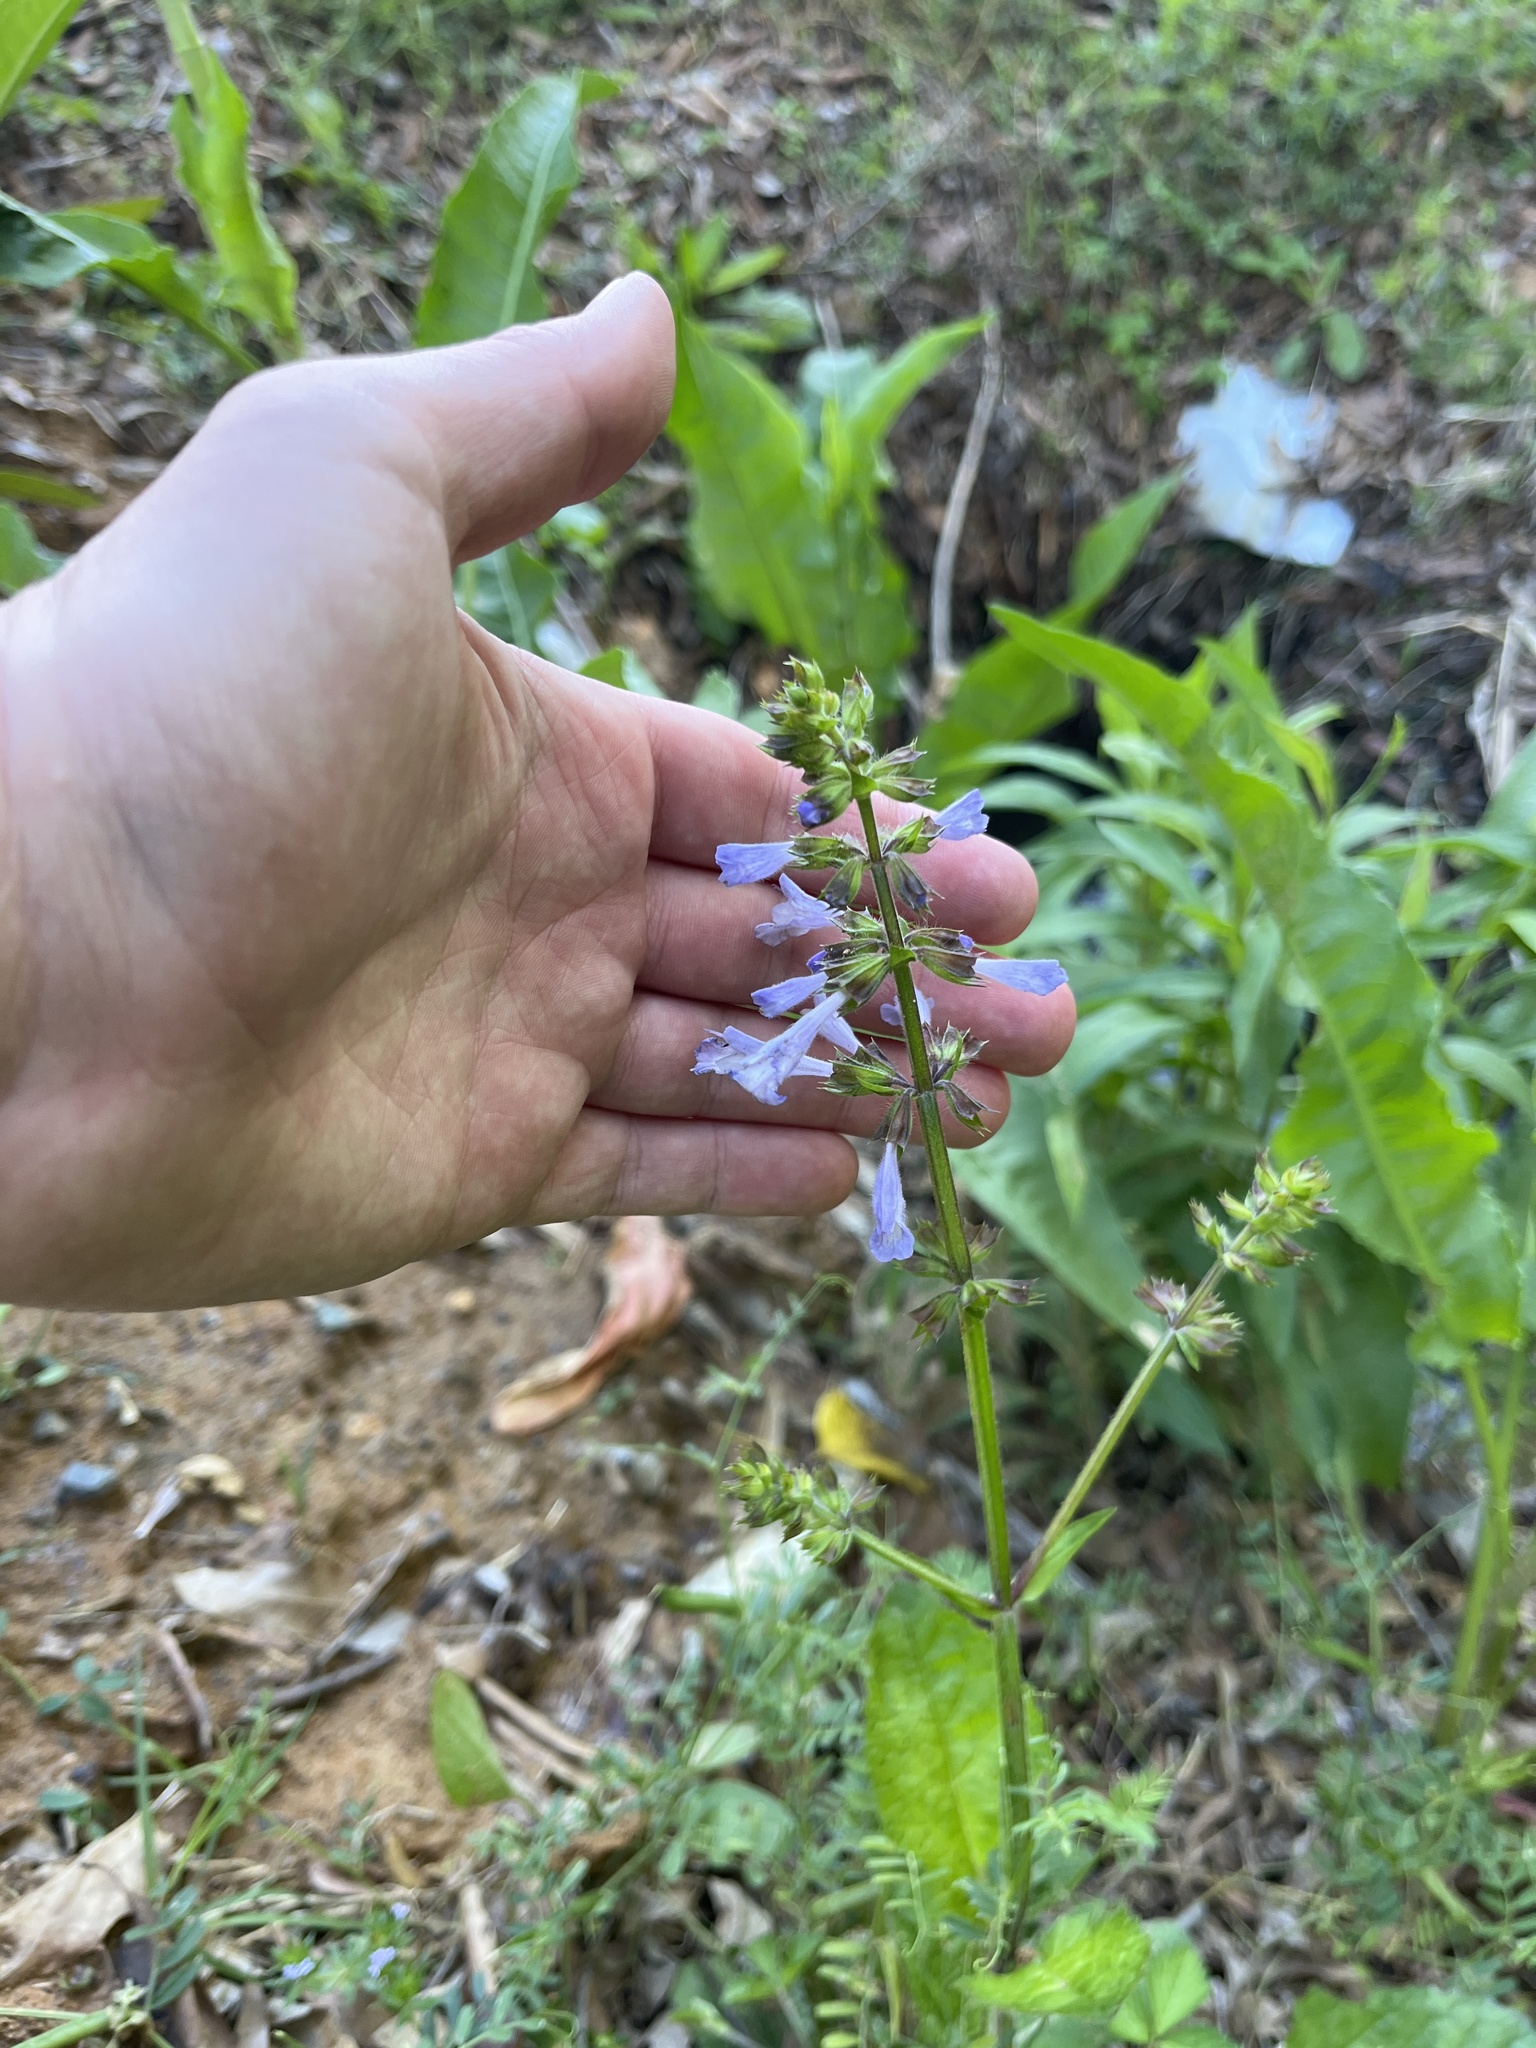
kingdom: Plantae
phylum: Tracheophyta
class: Magnoliopsida
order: Lamiales
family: Lamiaceae
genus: Salvia
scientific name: Salvia lyrata
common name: Cancerweed
